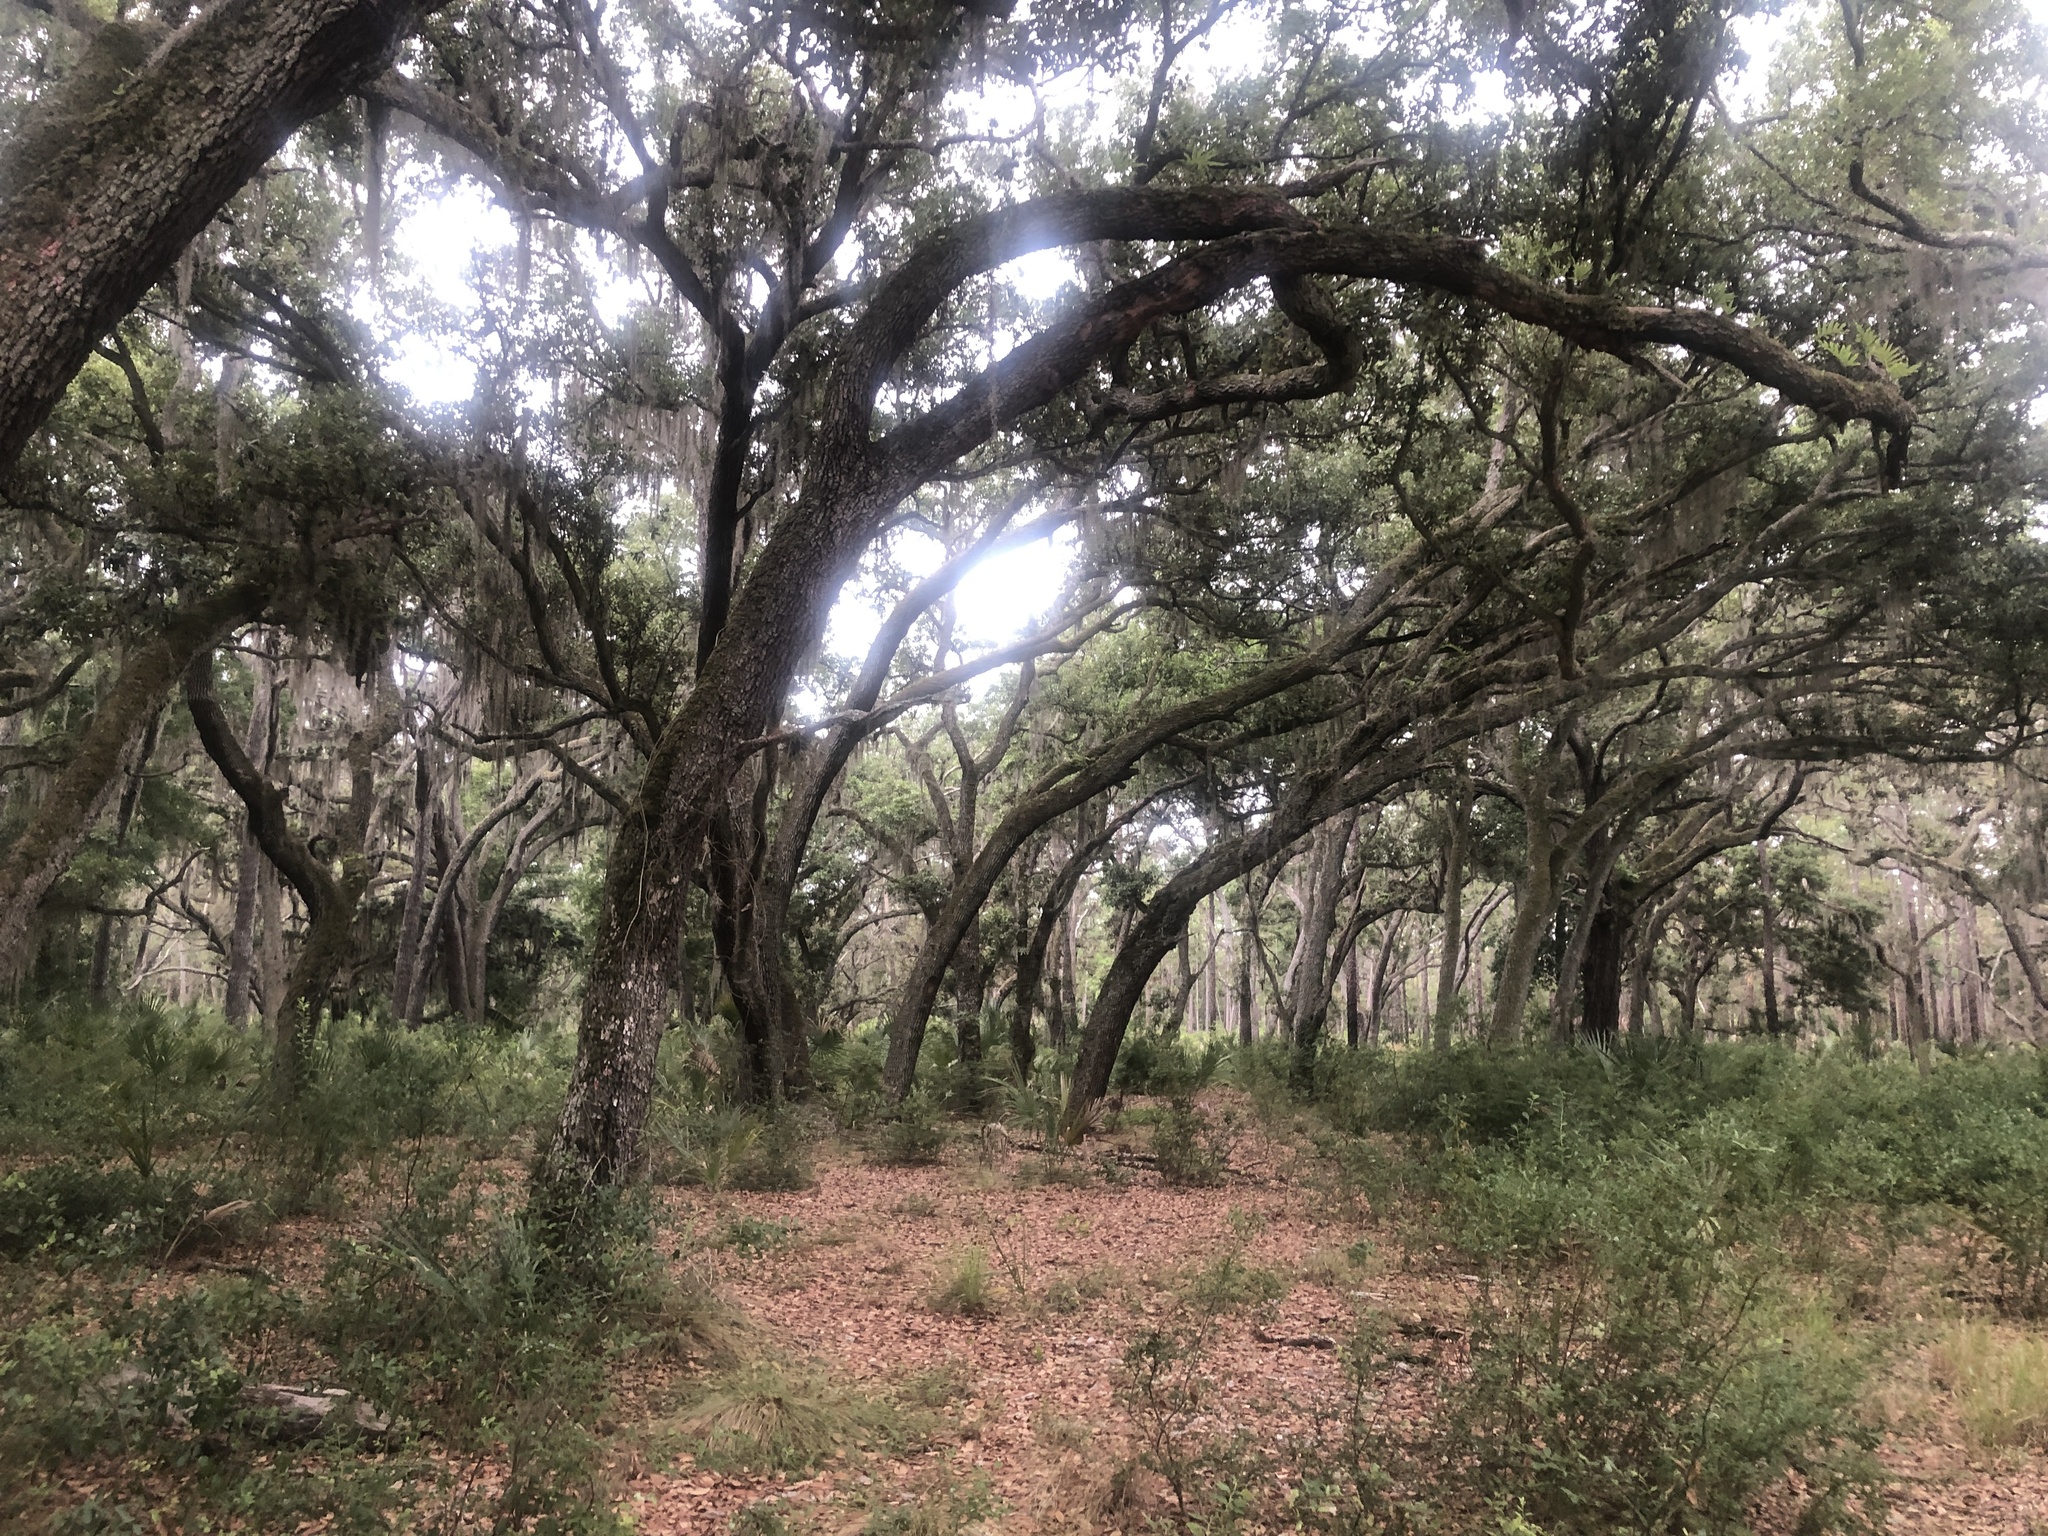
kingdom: Plantae
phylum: Tracheophyta
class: Magnoliopsida
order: Fagales
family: Fagaceae
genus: Quercus
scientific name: Quercus virginiana
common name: Southern live oak
